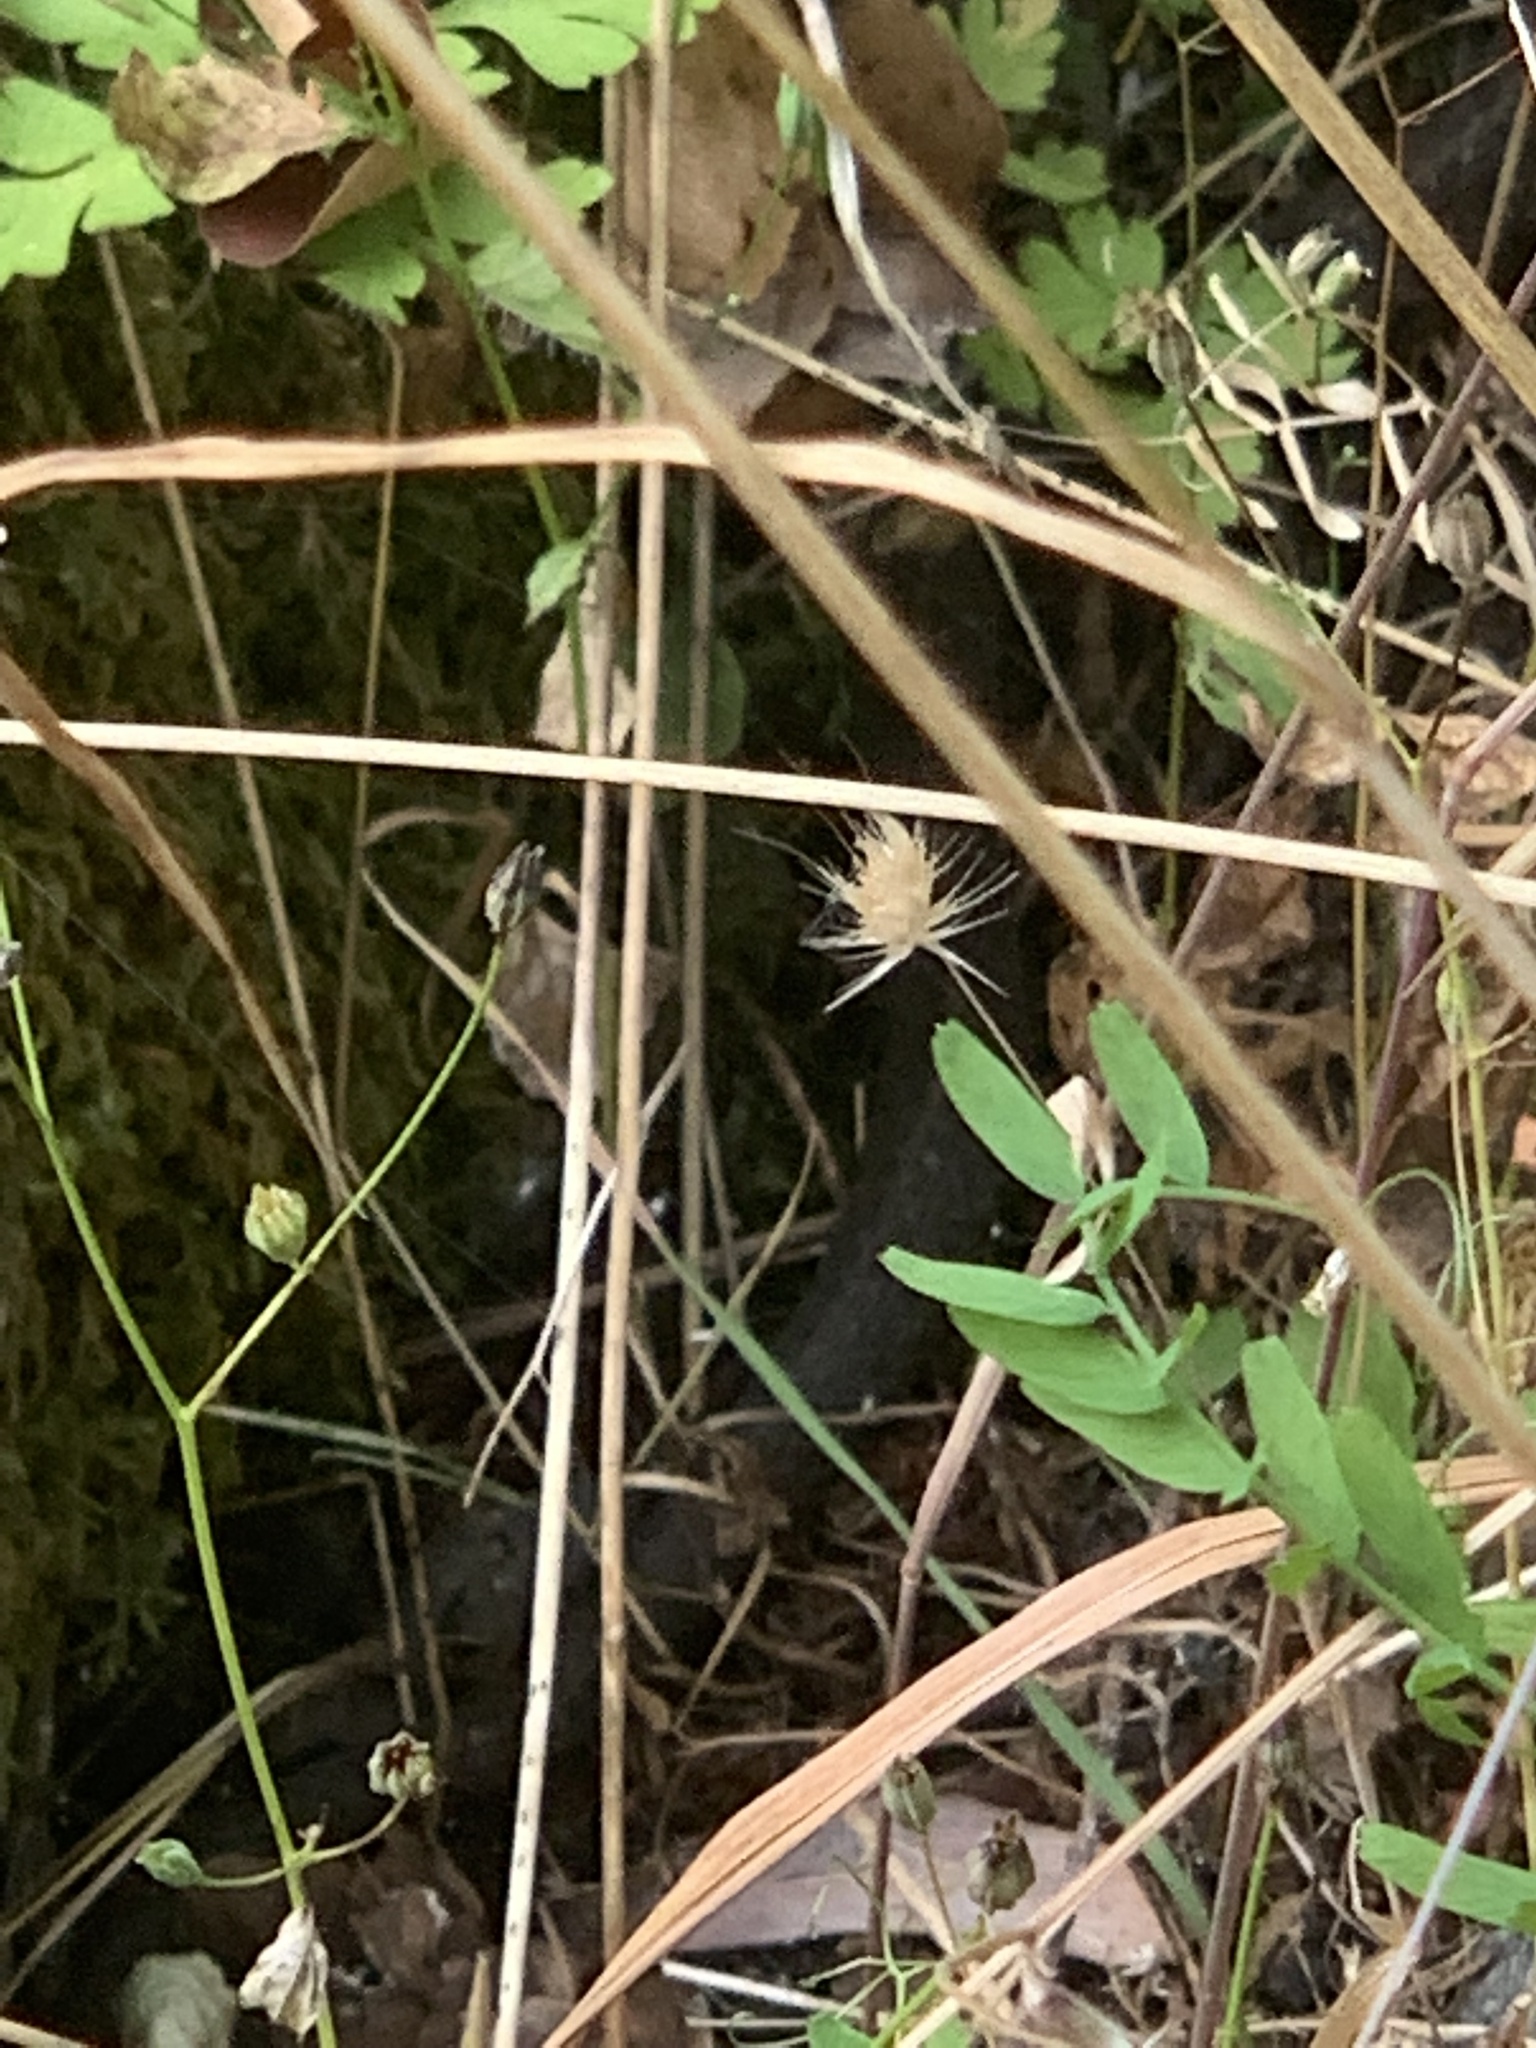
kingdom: Animalia
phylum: Chordata
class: Squamata
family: Colubridae
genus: Thamnophis
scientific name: Thamnophis elegans
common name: Western terrestrial garter snake
